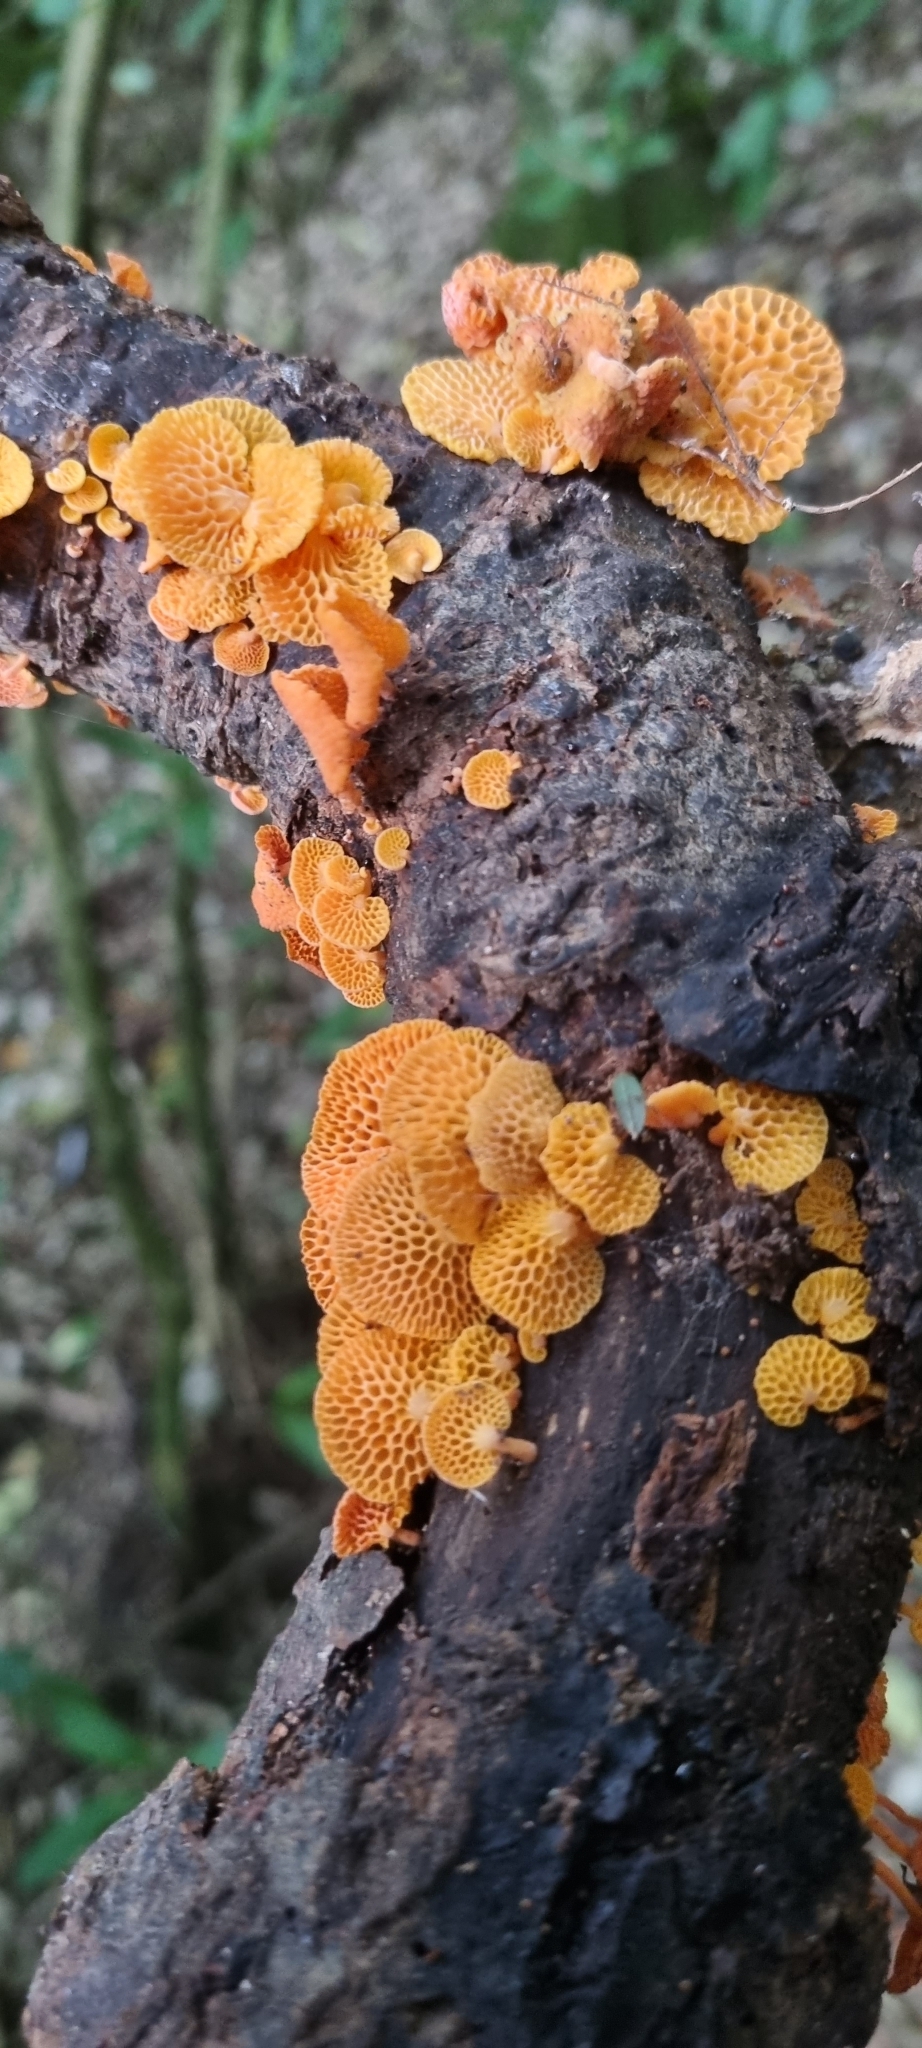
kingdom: Fungi
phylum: Basidiomycota
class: Agaricomycetes
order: Agaricales
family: Mycenaceae
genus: Favolaschia
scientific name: Favolaschia claudopus
